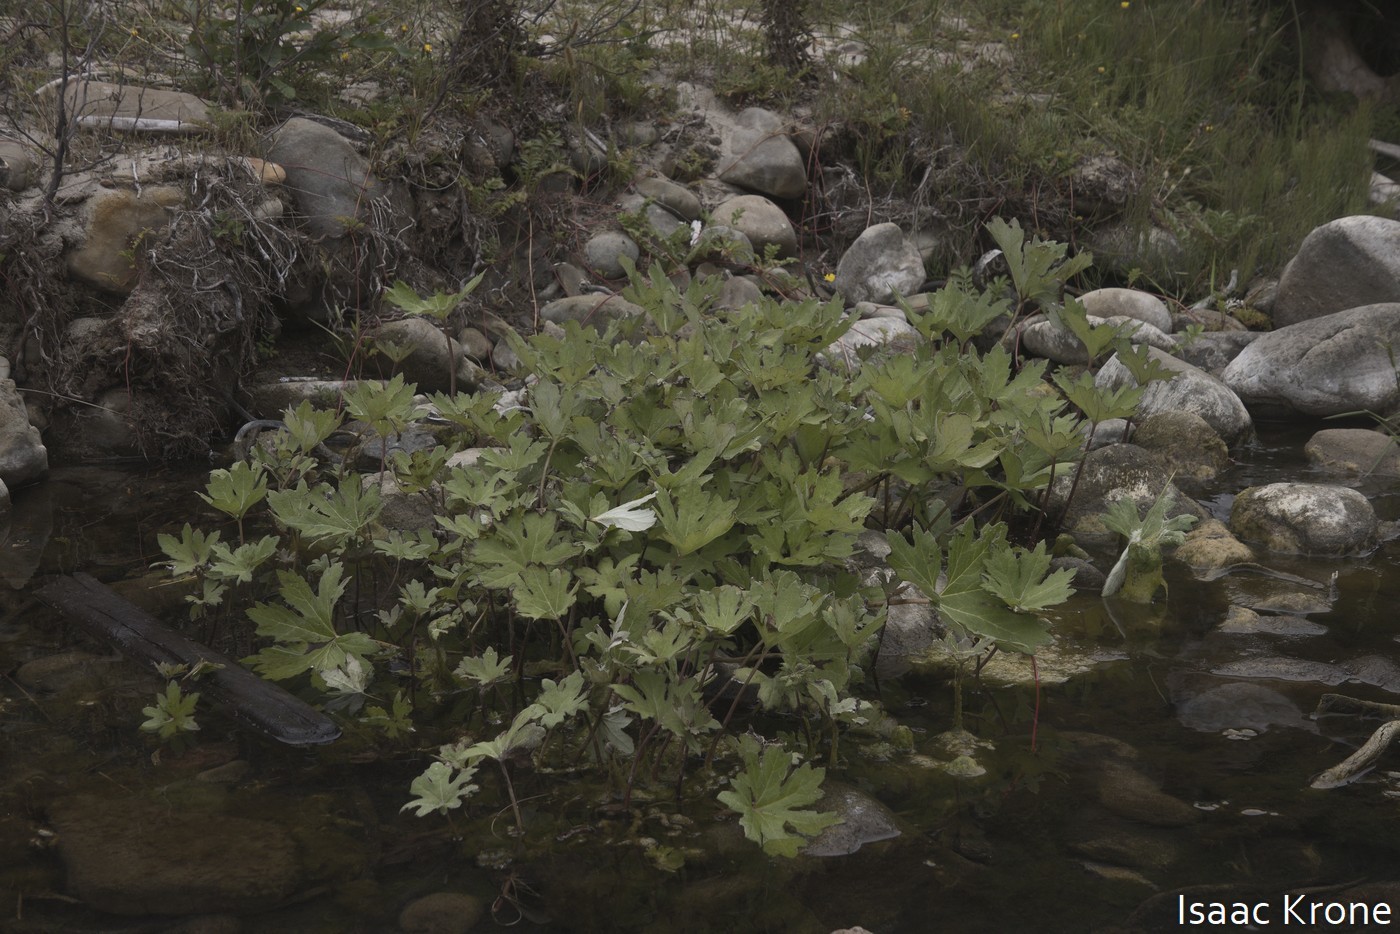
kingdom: Plantae
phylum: Tracheophyta
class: Magnoliopsida
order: Asterales
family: Asteraceae
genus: Petasites
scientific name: Petasites frigidus
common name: Arctic butterbur
